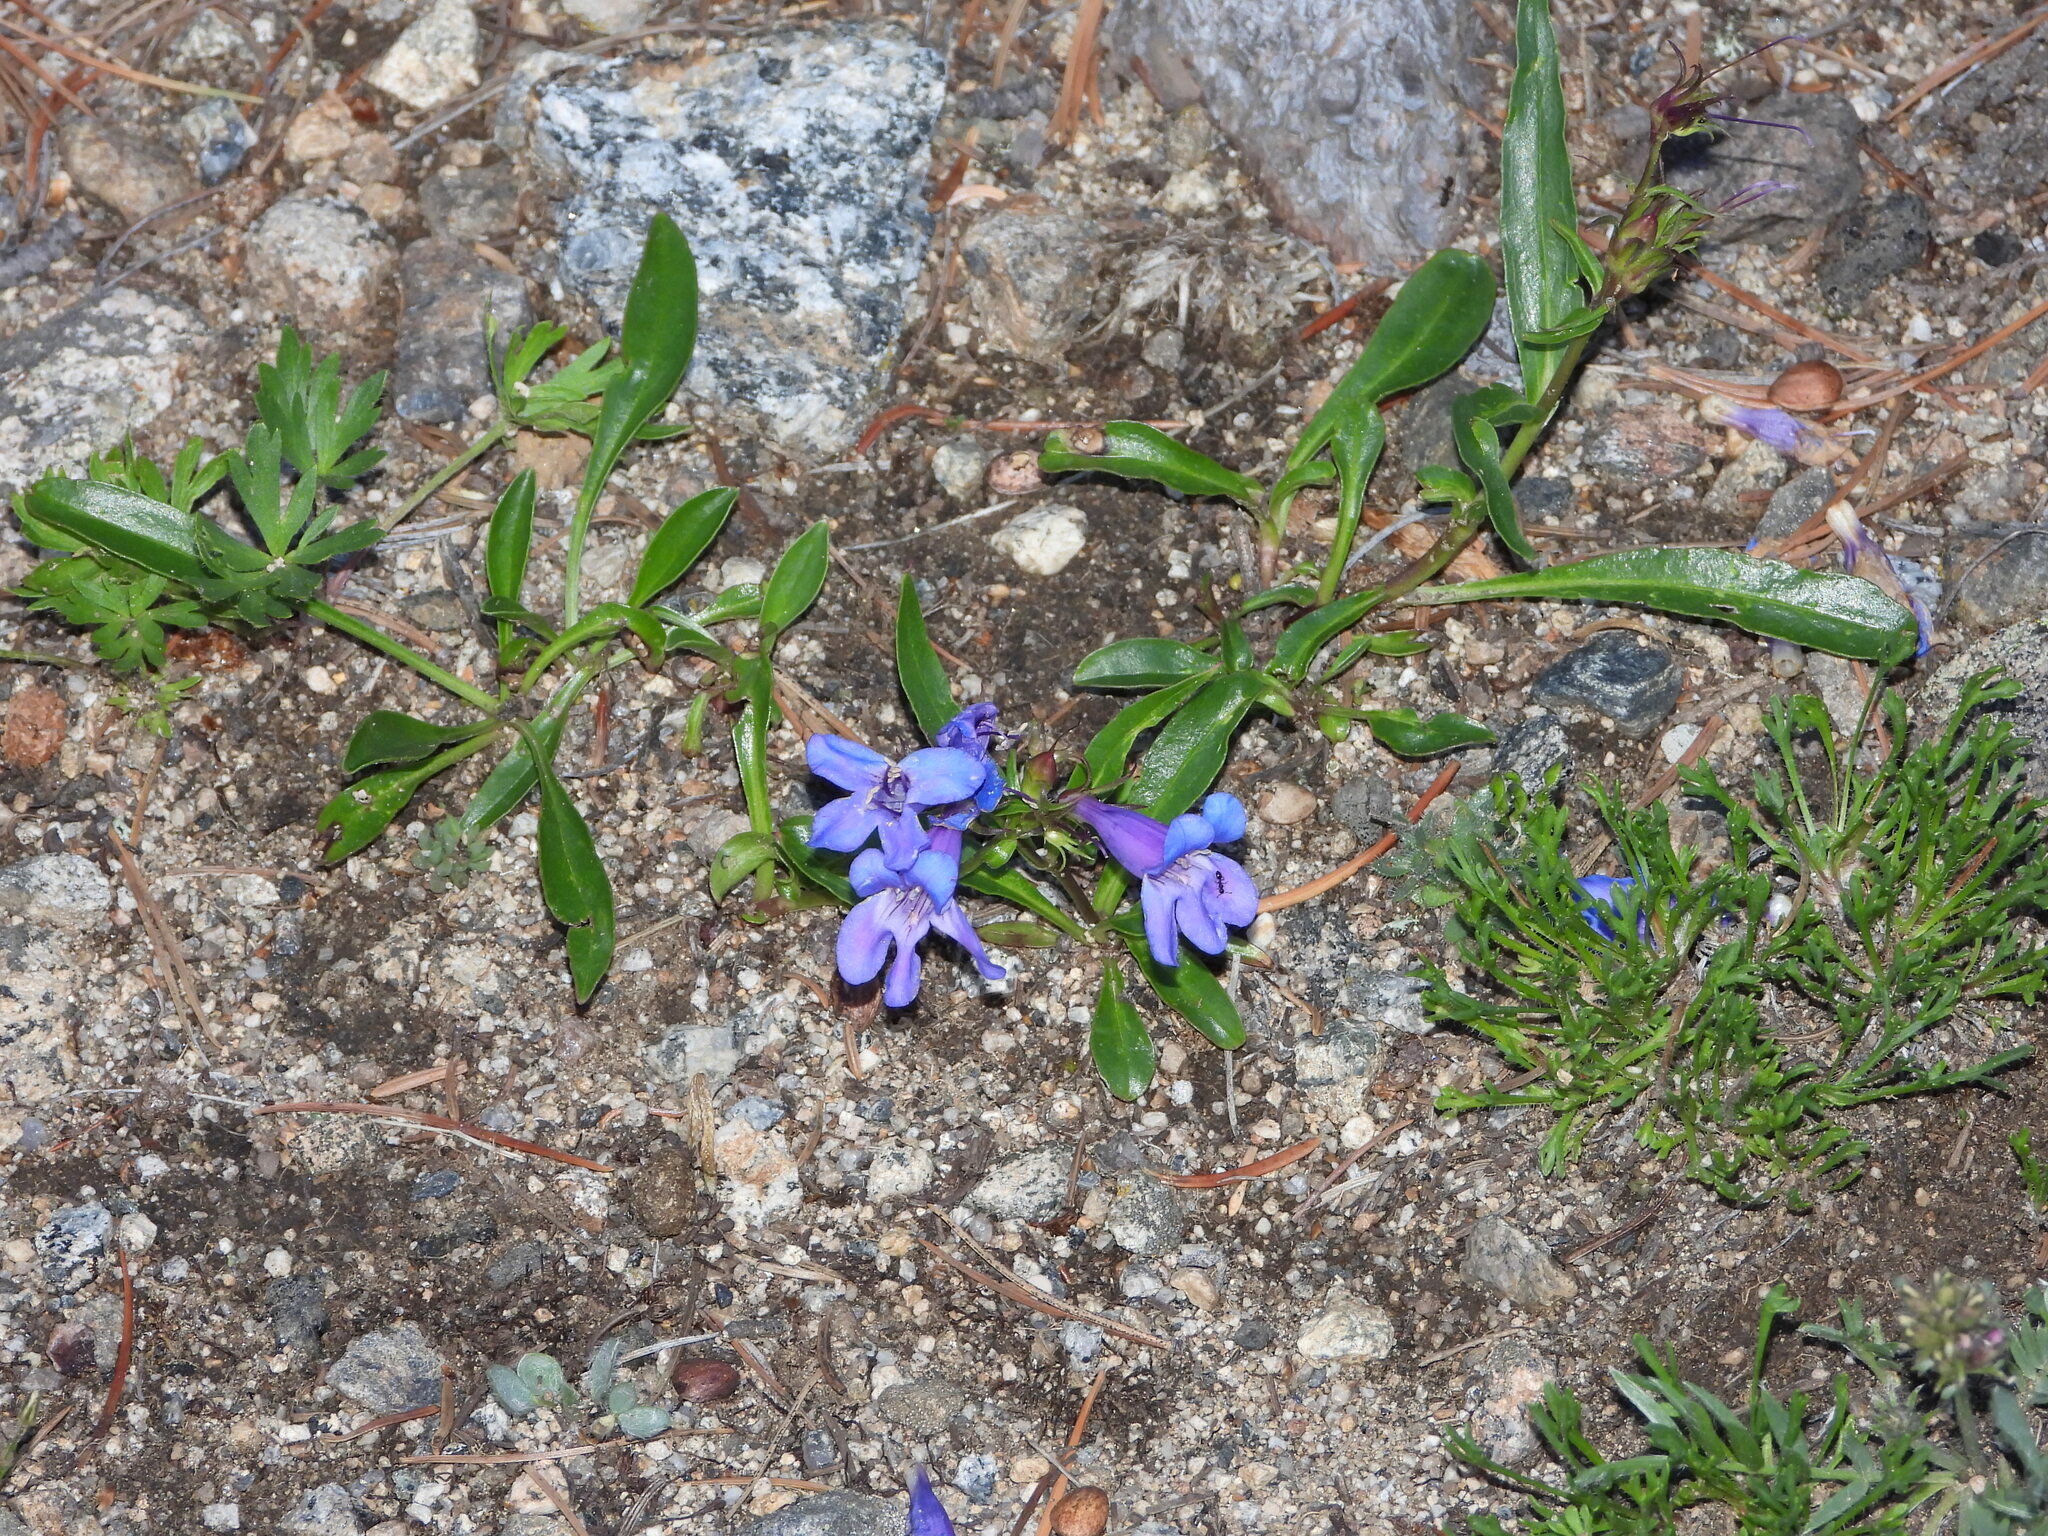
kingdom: Plantae
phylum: Tracheophyta
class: Magnoliopsida
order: Lamiales
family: Plantaginaceae
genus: Penstemon
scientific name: Penstemon glaber
